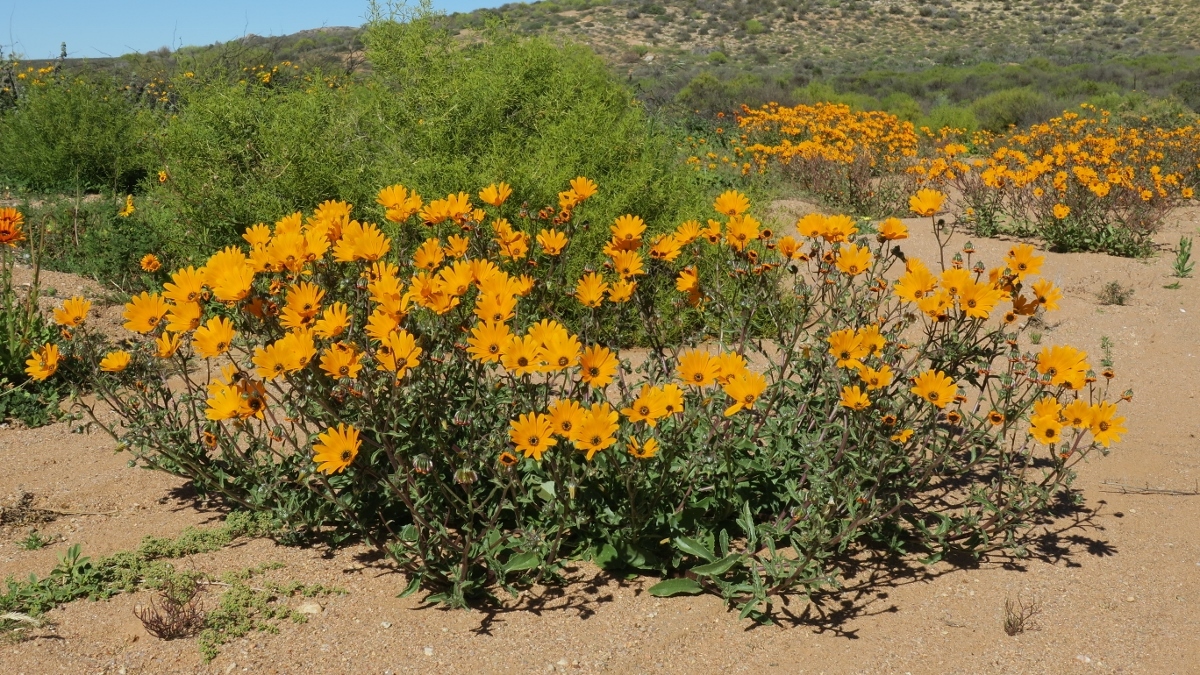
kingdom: Plantae
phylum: Tracheophyta
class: Magnoliopsida
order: Asterales
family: Asteraceae
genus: Osteospermum
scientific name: Osteospermum hyoseroides
